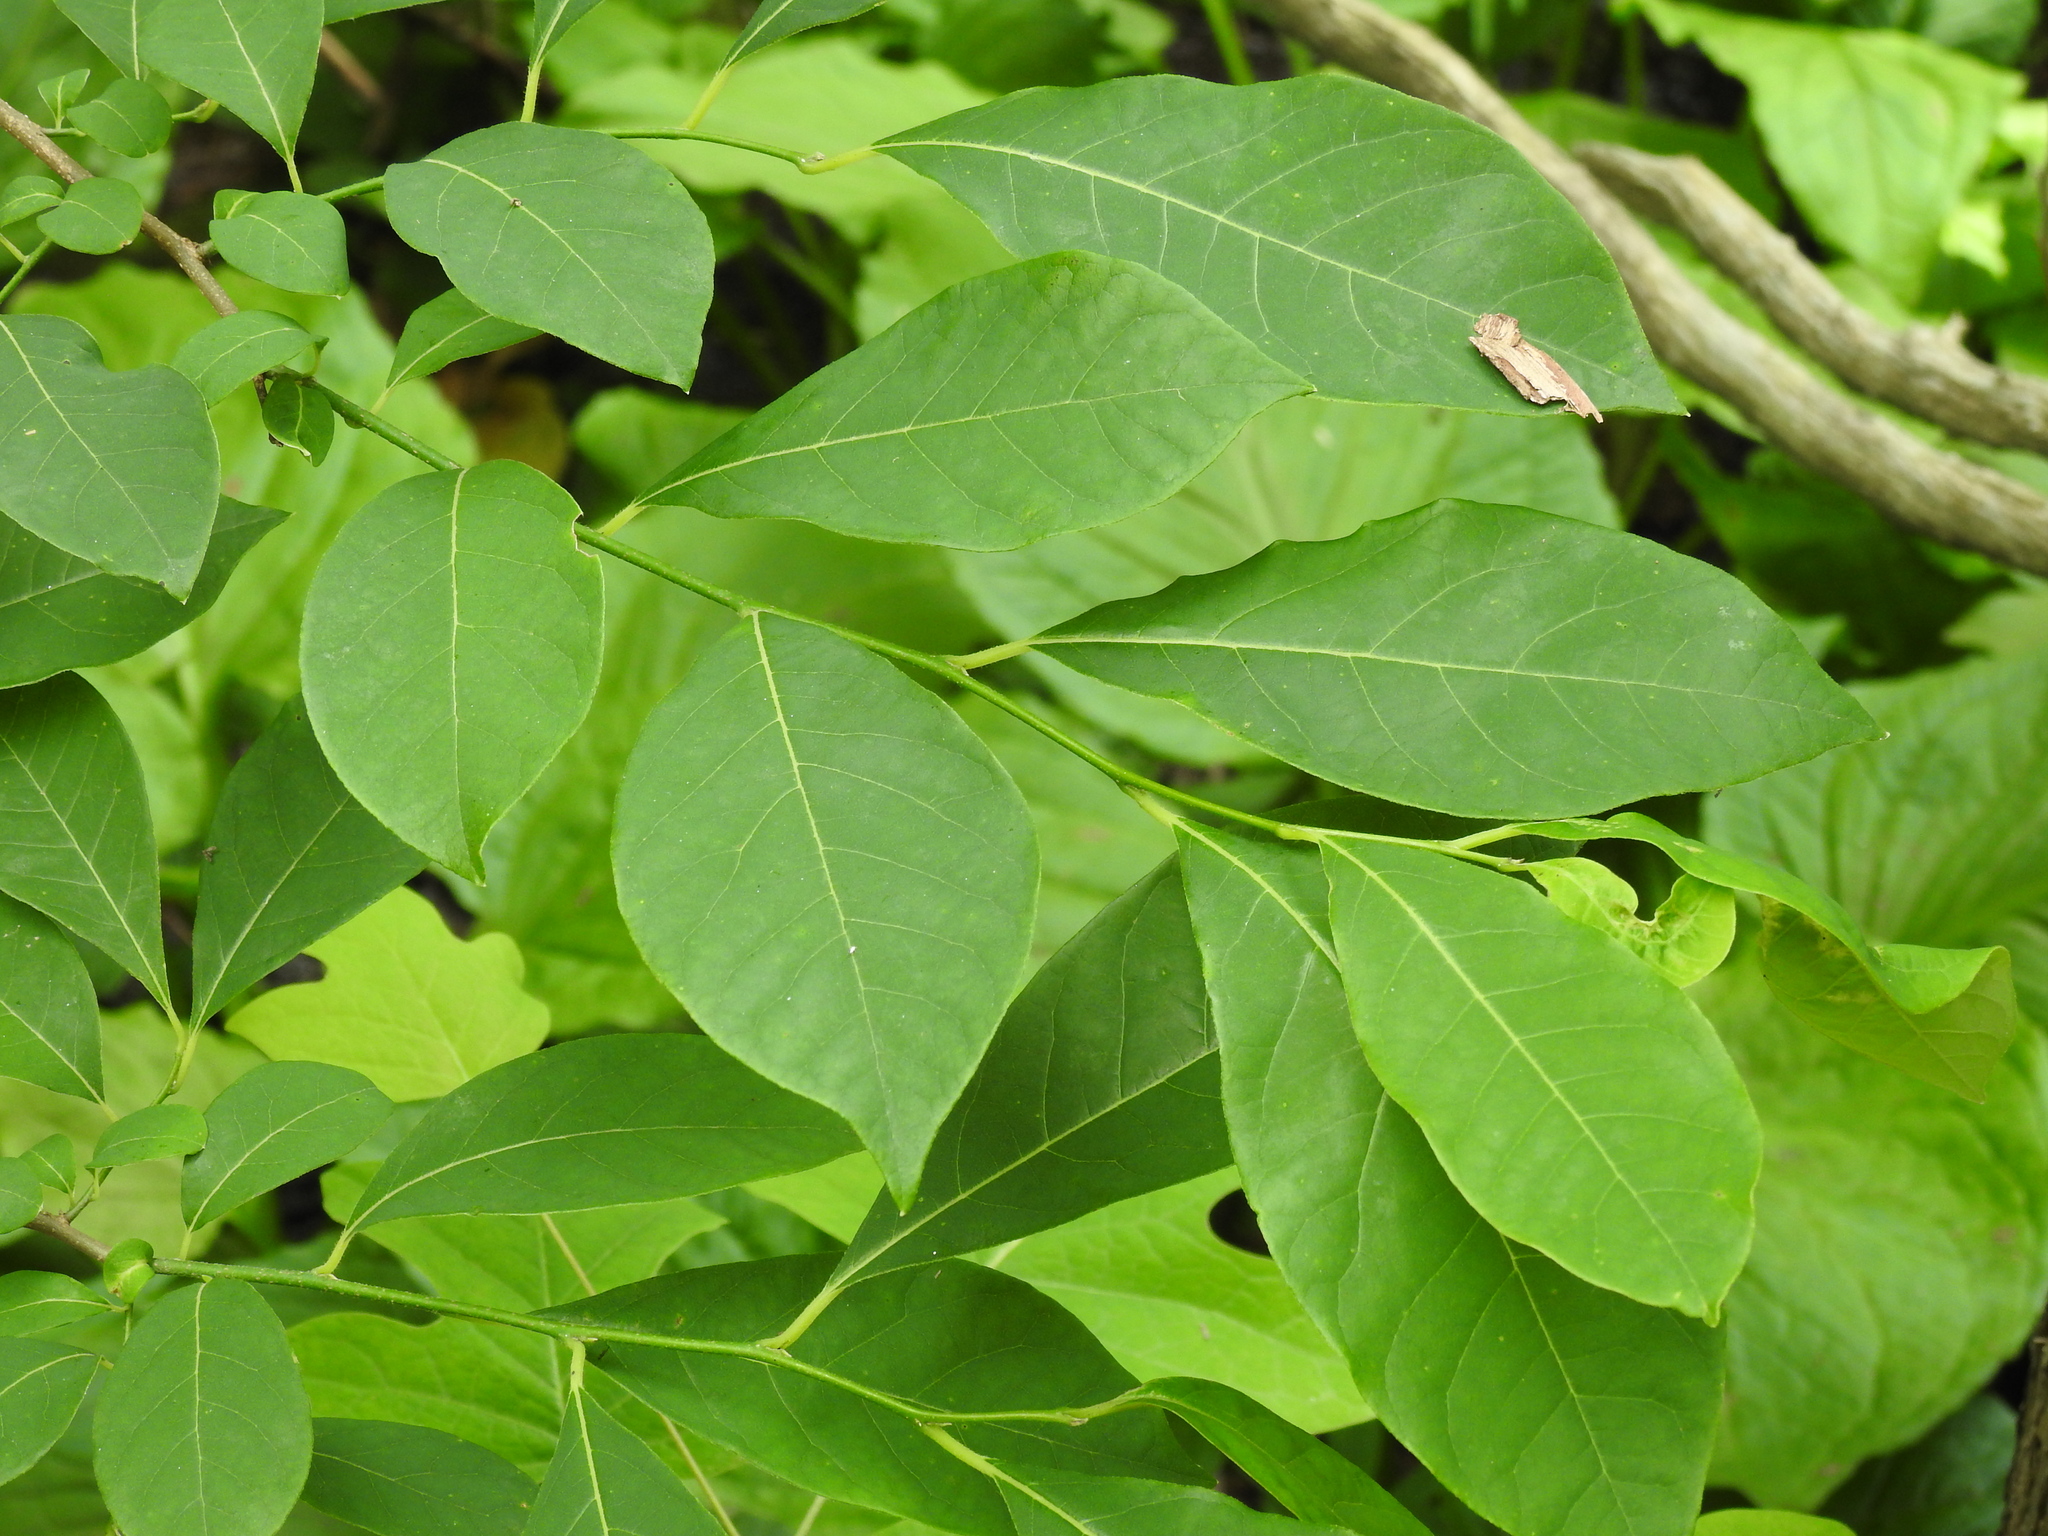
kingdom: Plantae
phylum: Tracheophyta
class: Magnoliopsida
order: Laurales
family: Lauraceae
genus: Lindera
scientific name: Lindera benzoin
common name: Spicebush
